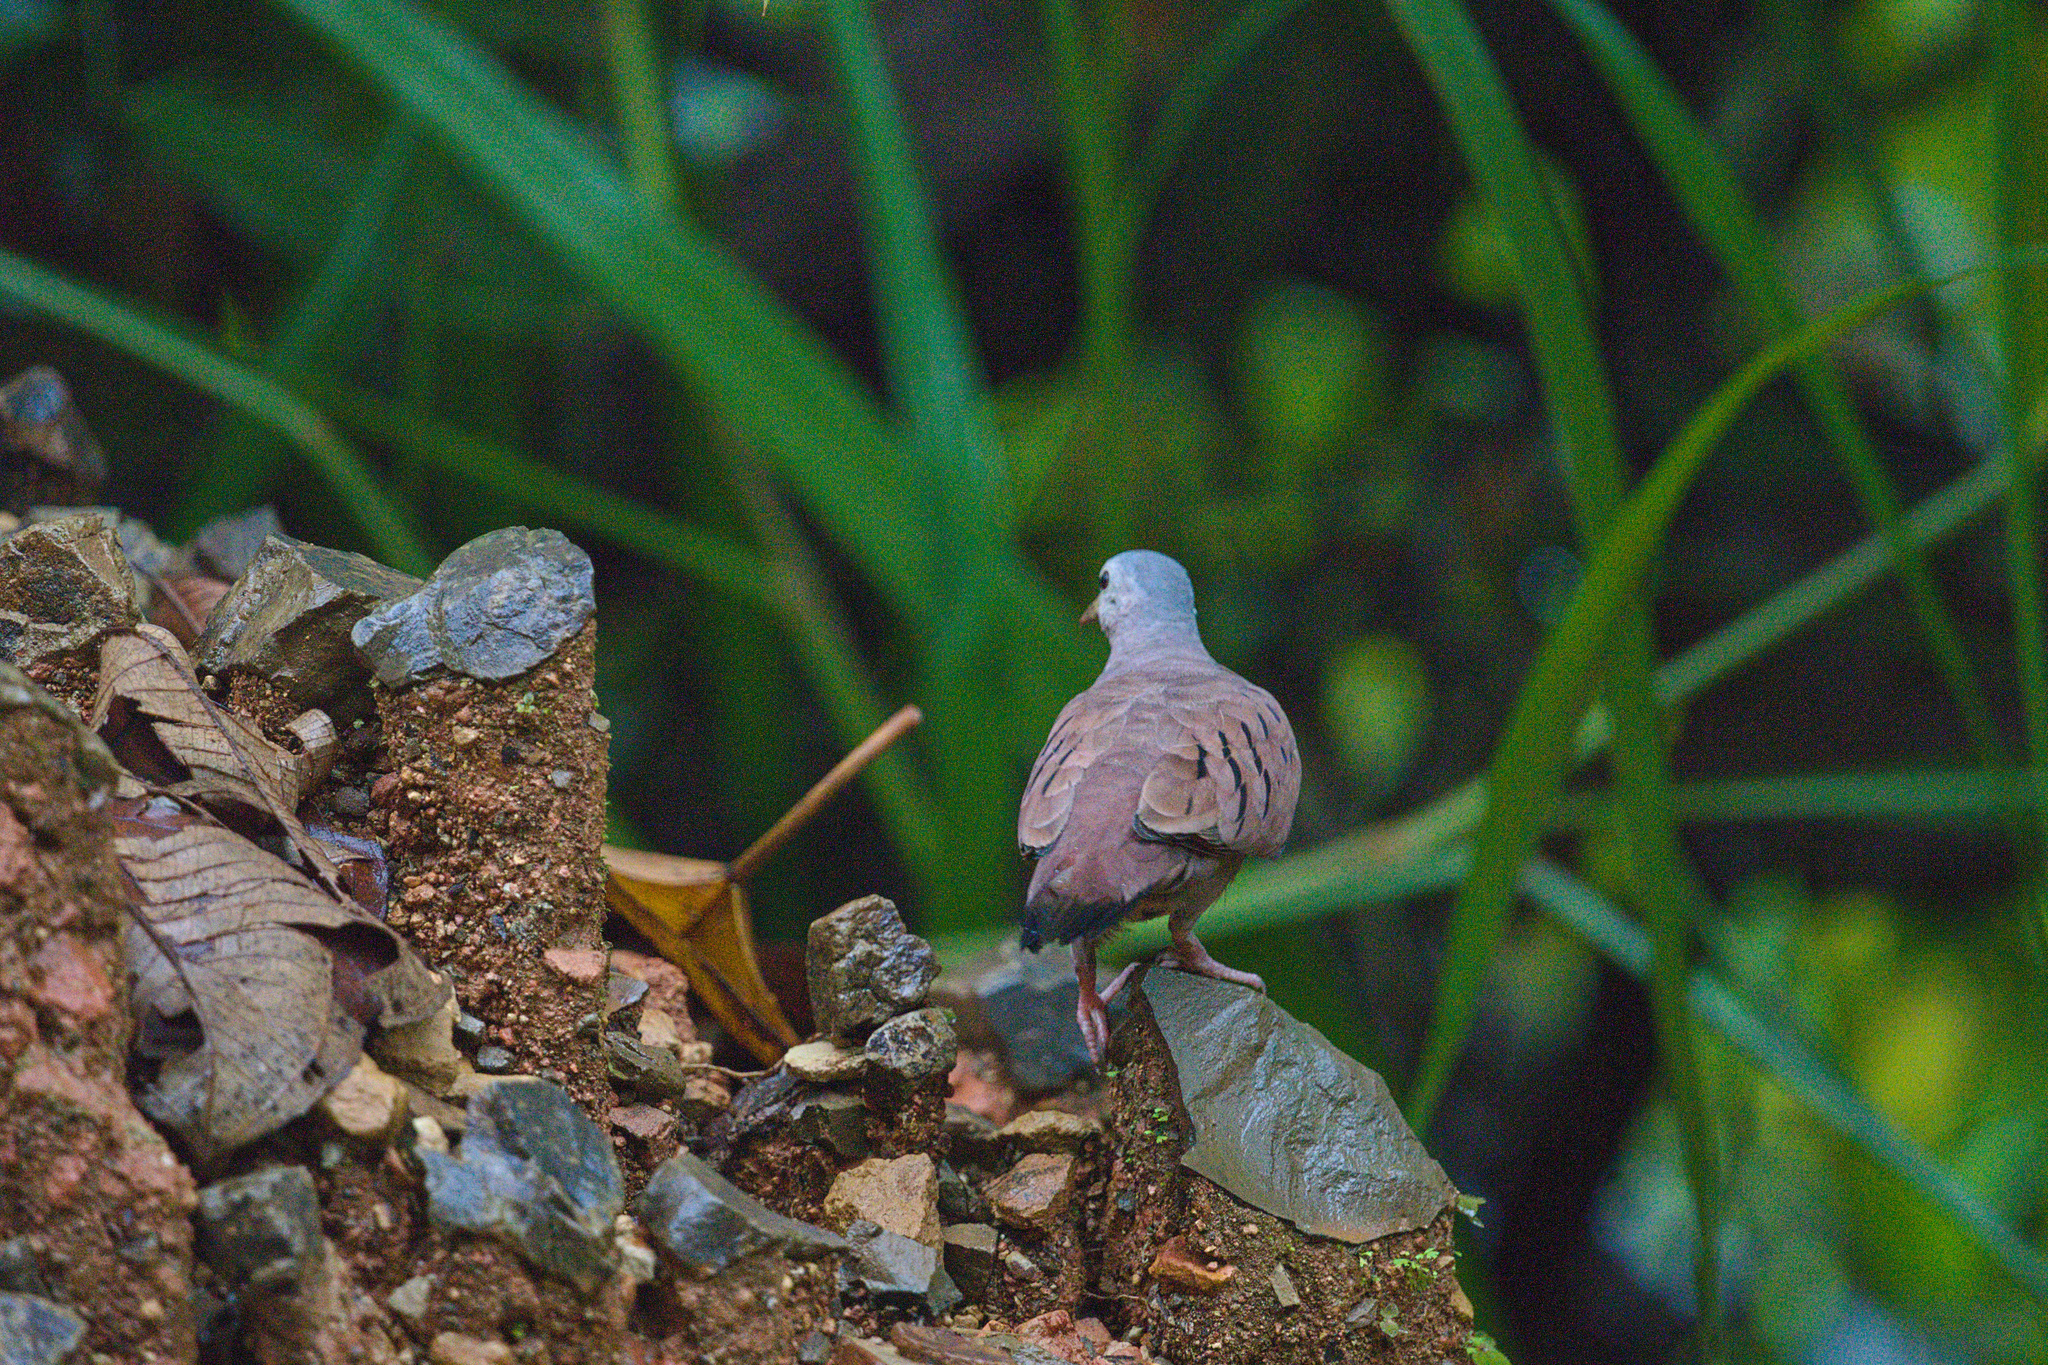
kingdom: Animalia
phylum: Chordata
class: Aves
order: Columbiformes
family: Columbidae
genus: Columbina
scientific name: Columbina talpacoti
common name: Ruddy ground dove
